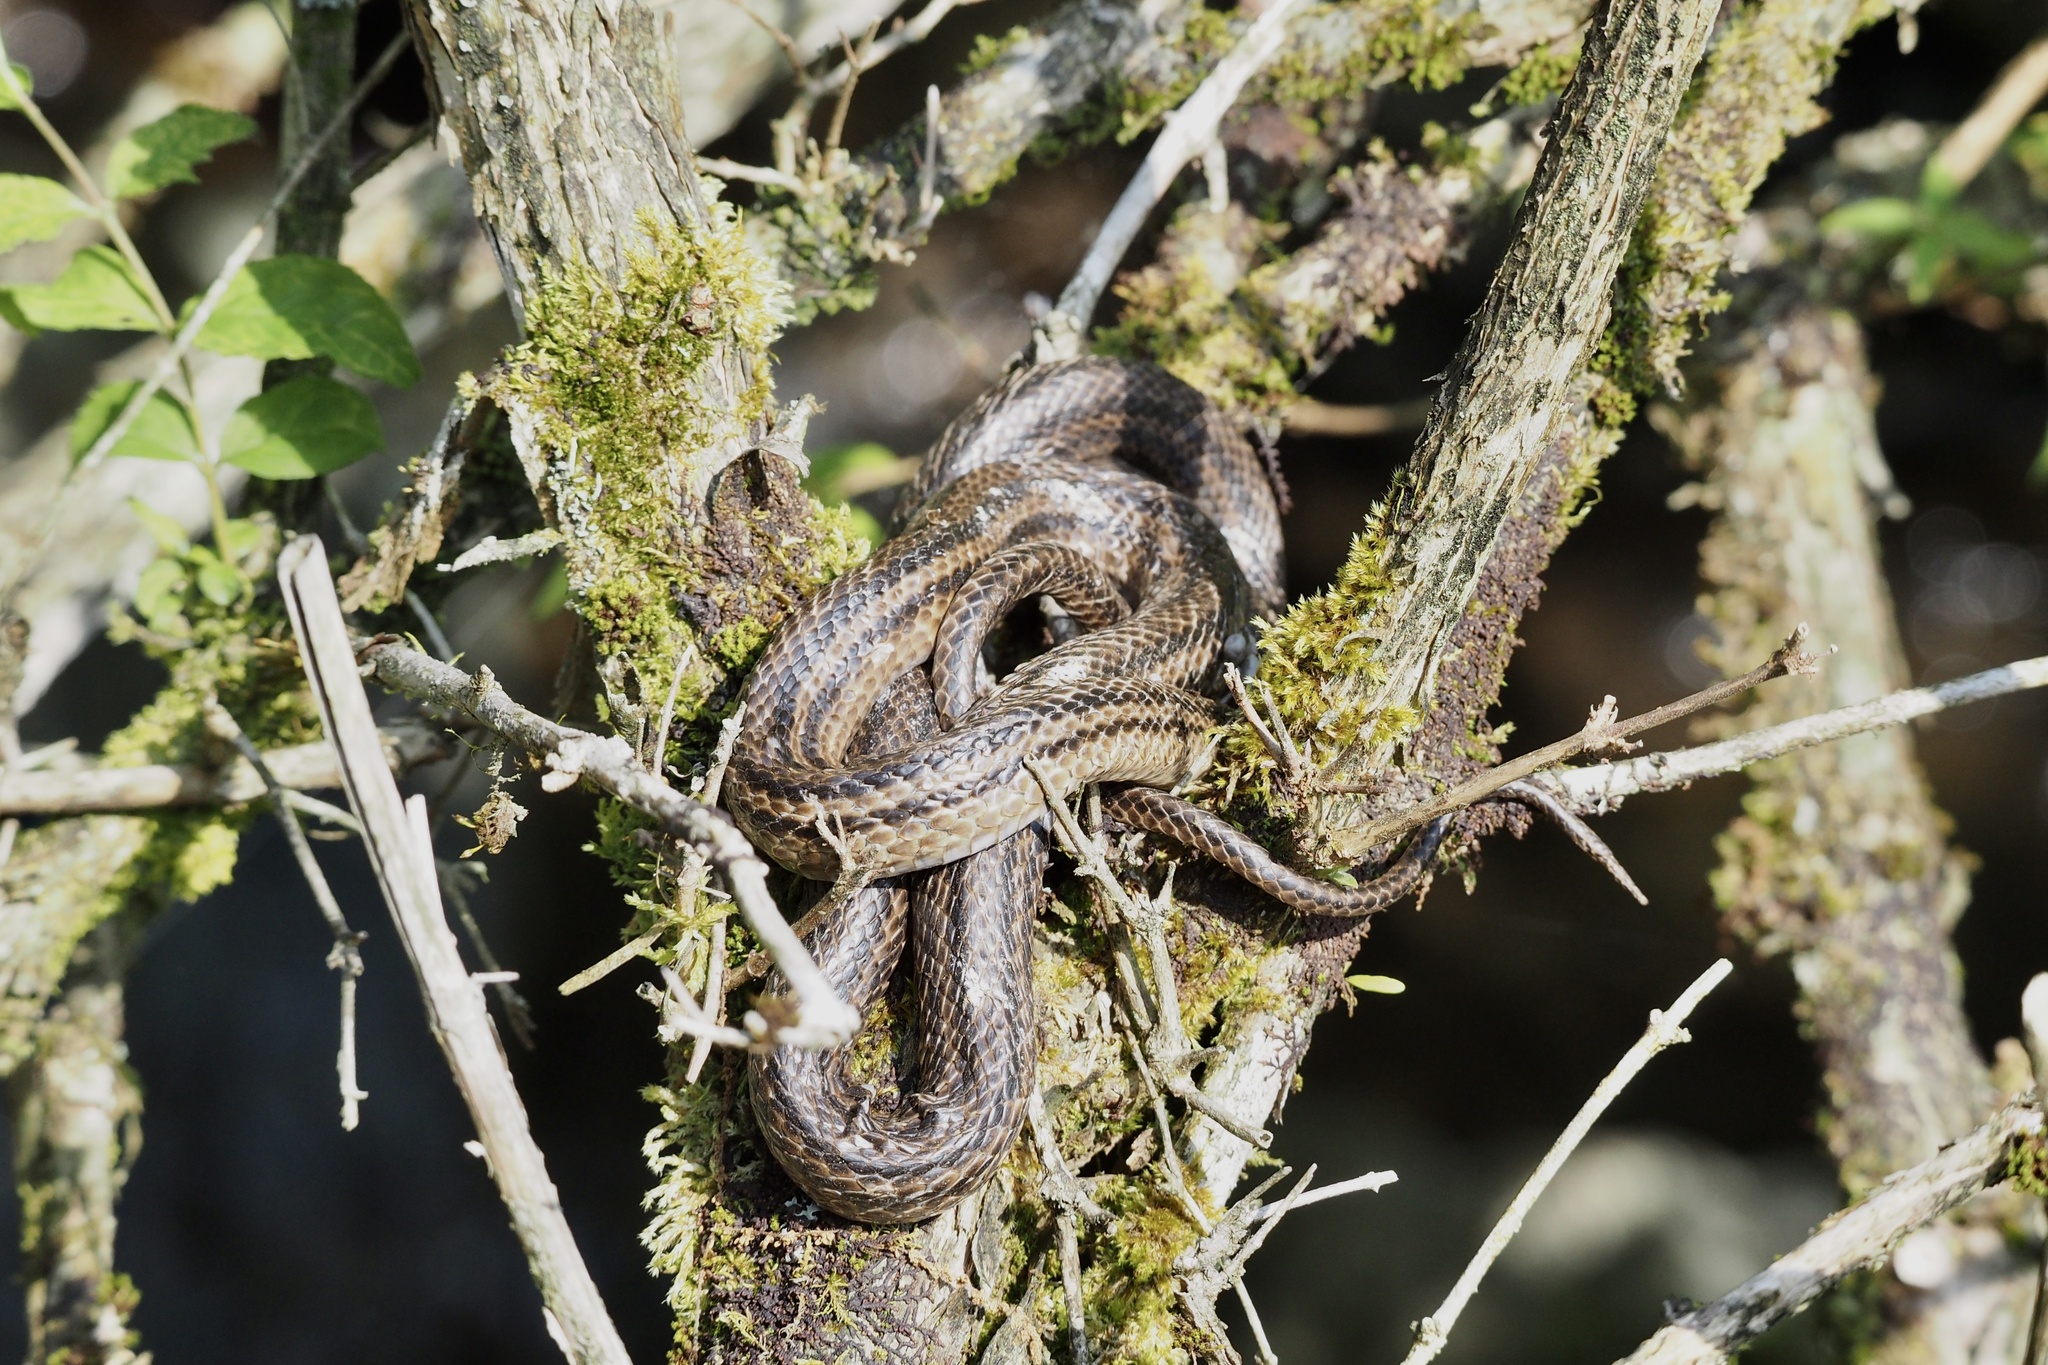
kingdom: Animalia
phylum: Chordata
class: Squamata
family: Colubridae
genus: Elaphe
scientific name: Elaphe quadrivirgata
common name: Japanese four-lined ratsnake
